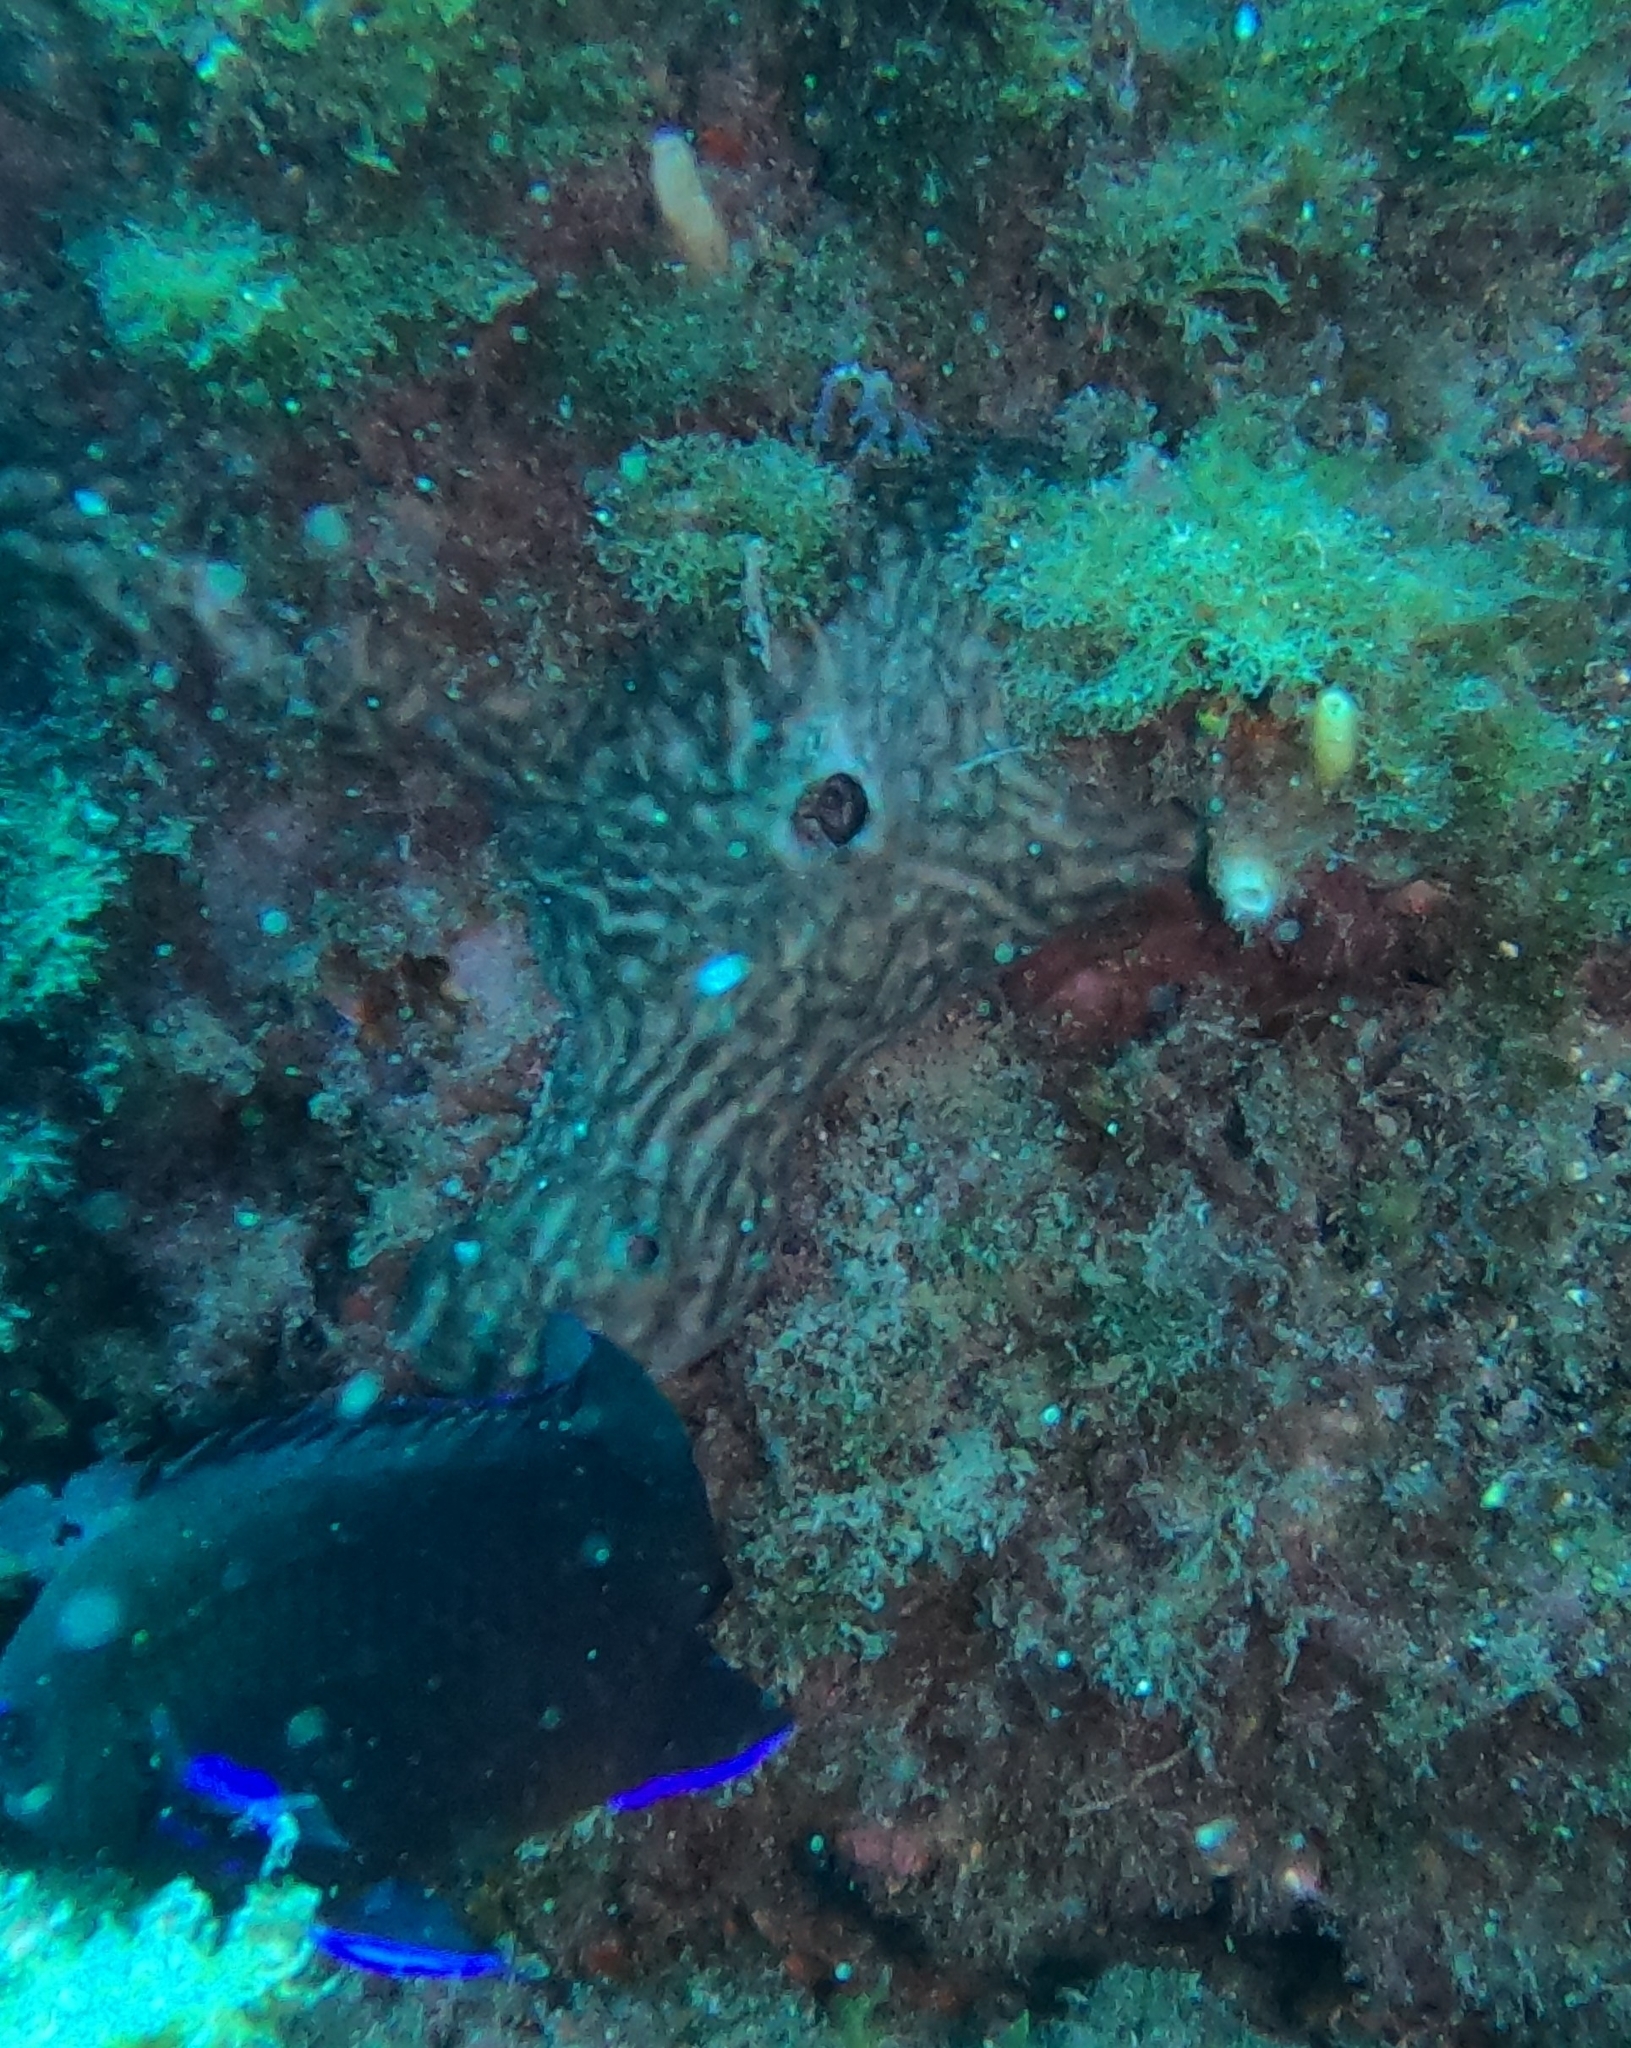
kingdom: Animalia
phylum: Porifera
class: Demospongiae
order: Chondrosiida
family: Chondrosiidae
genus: Chondrosia
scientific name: Chondrosia reniformis
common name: Chicken liver sponge
